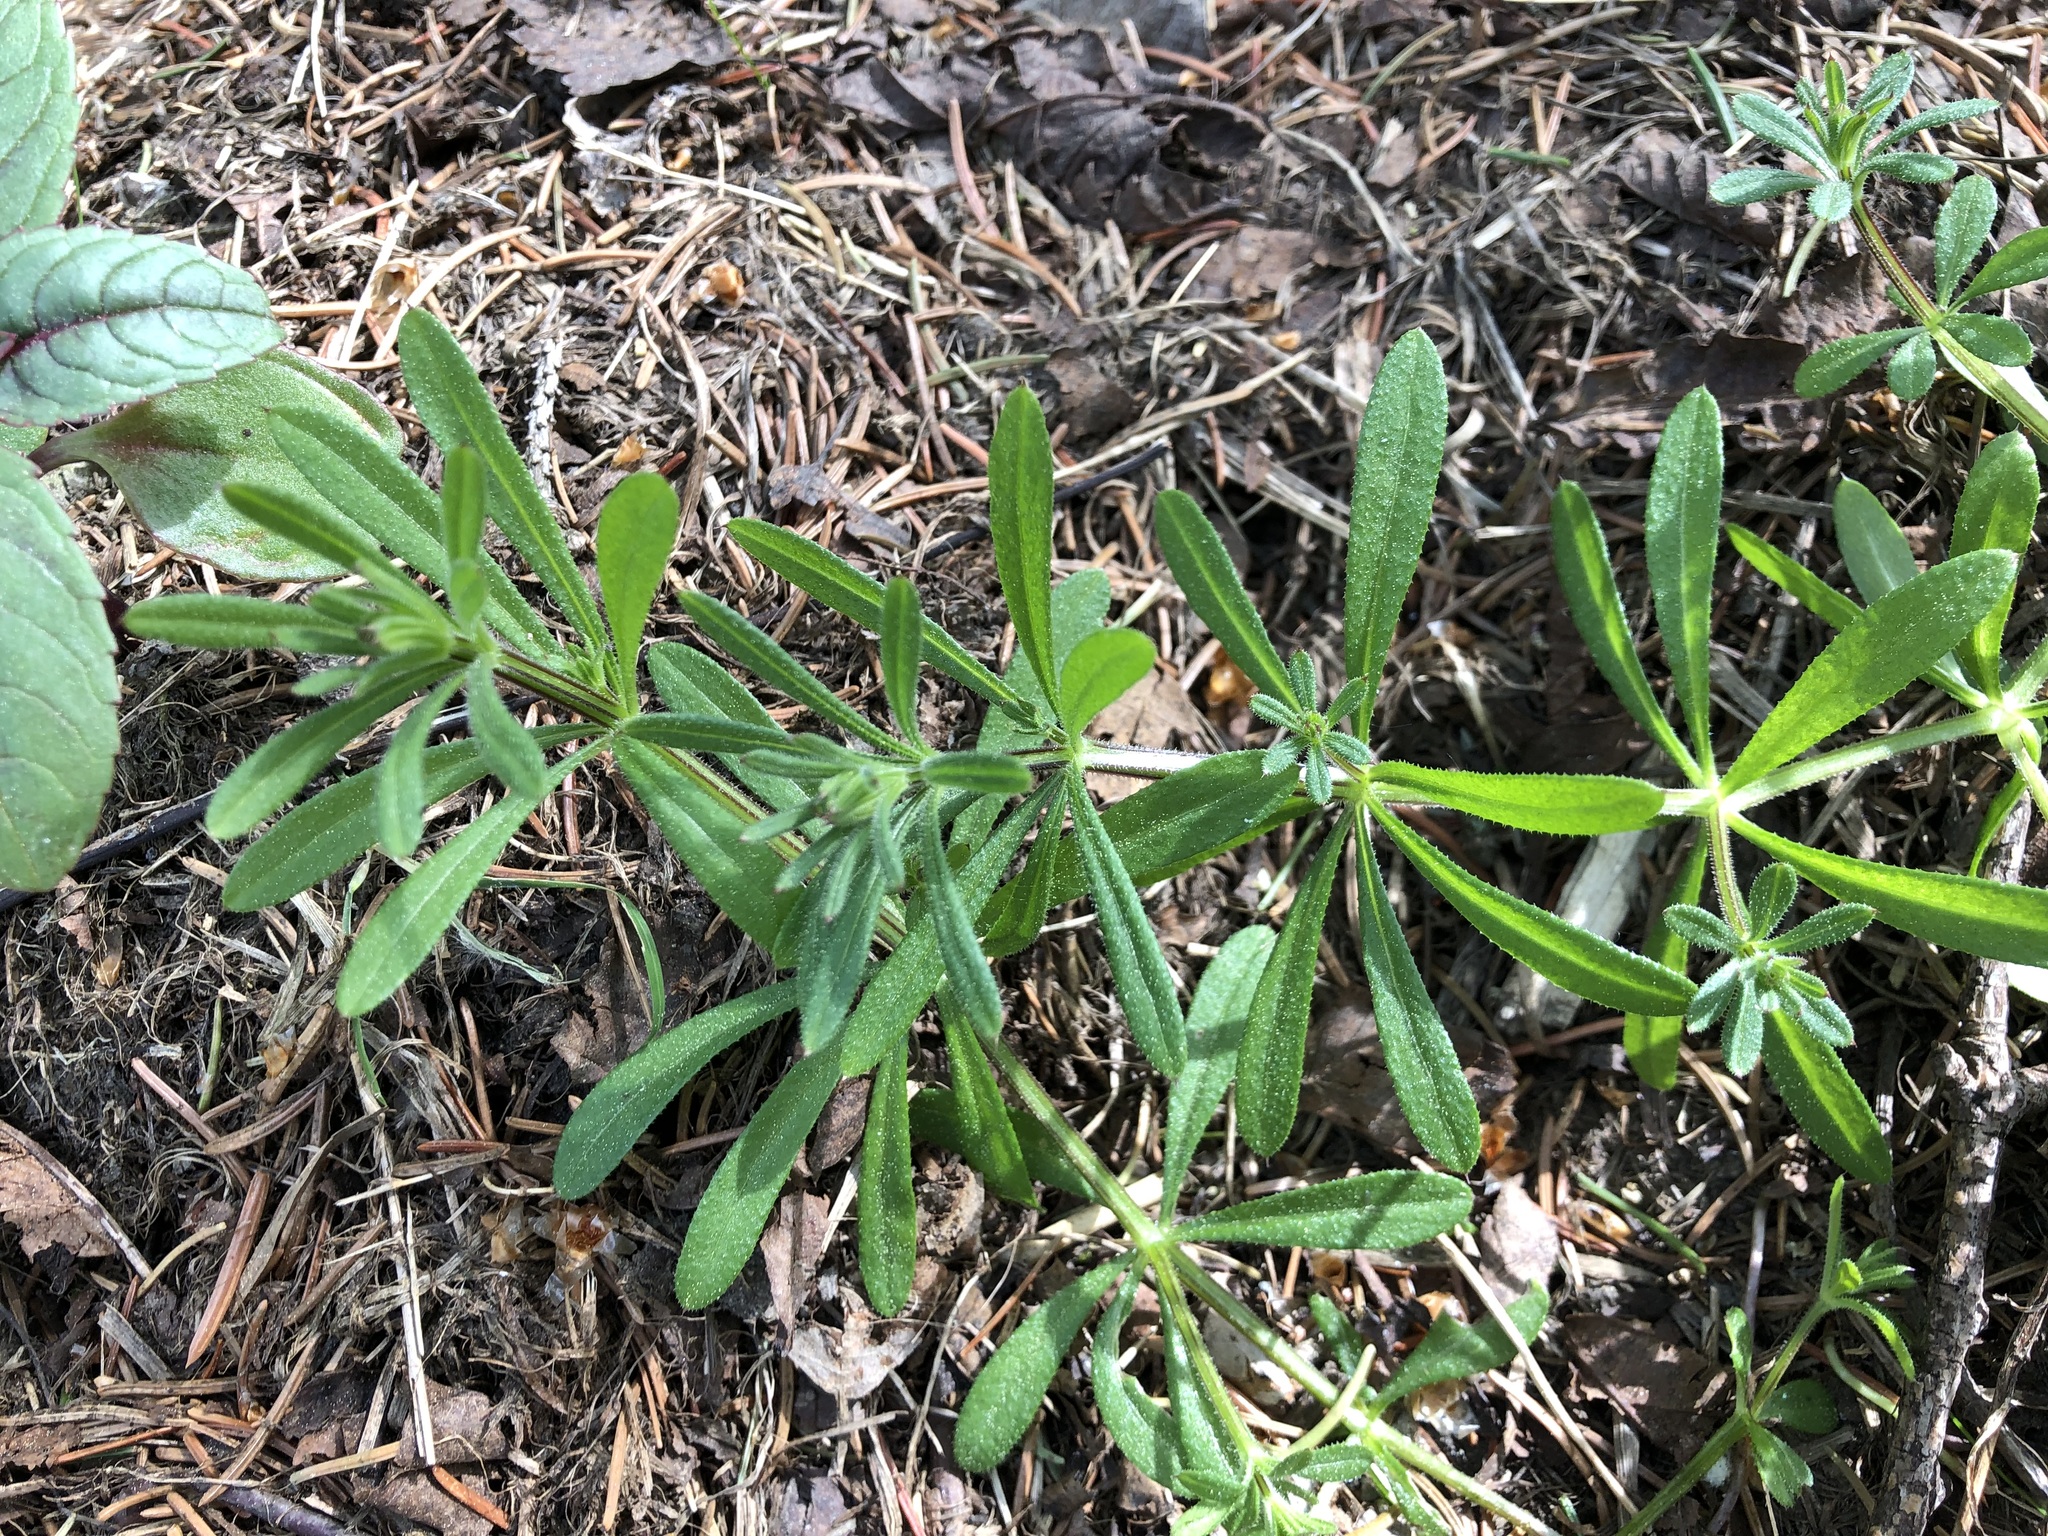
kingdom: Plantae
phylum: Tracheophyta
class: Magnoliopsida
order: Gentianales
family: Rubiaceae
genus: Galium
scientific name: Galium aparine
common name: Cleavers
